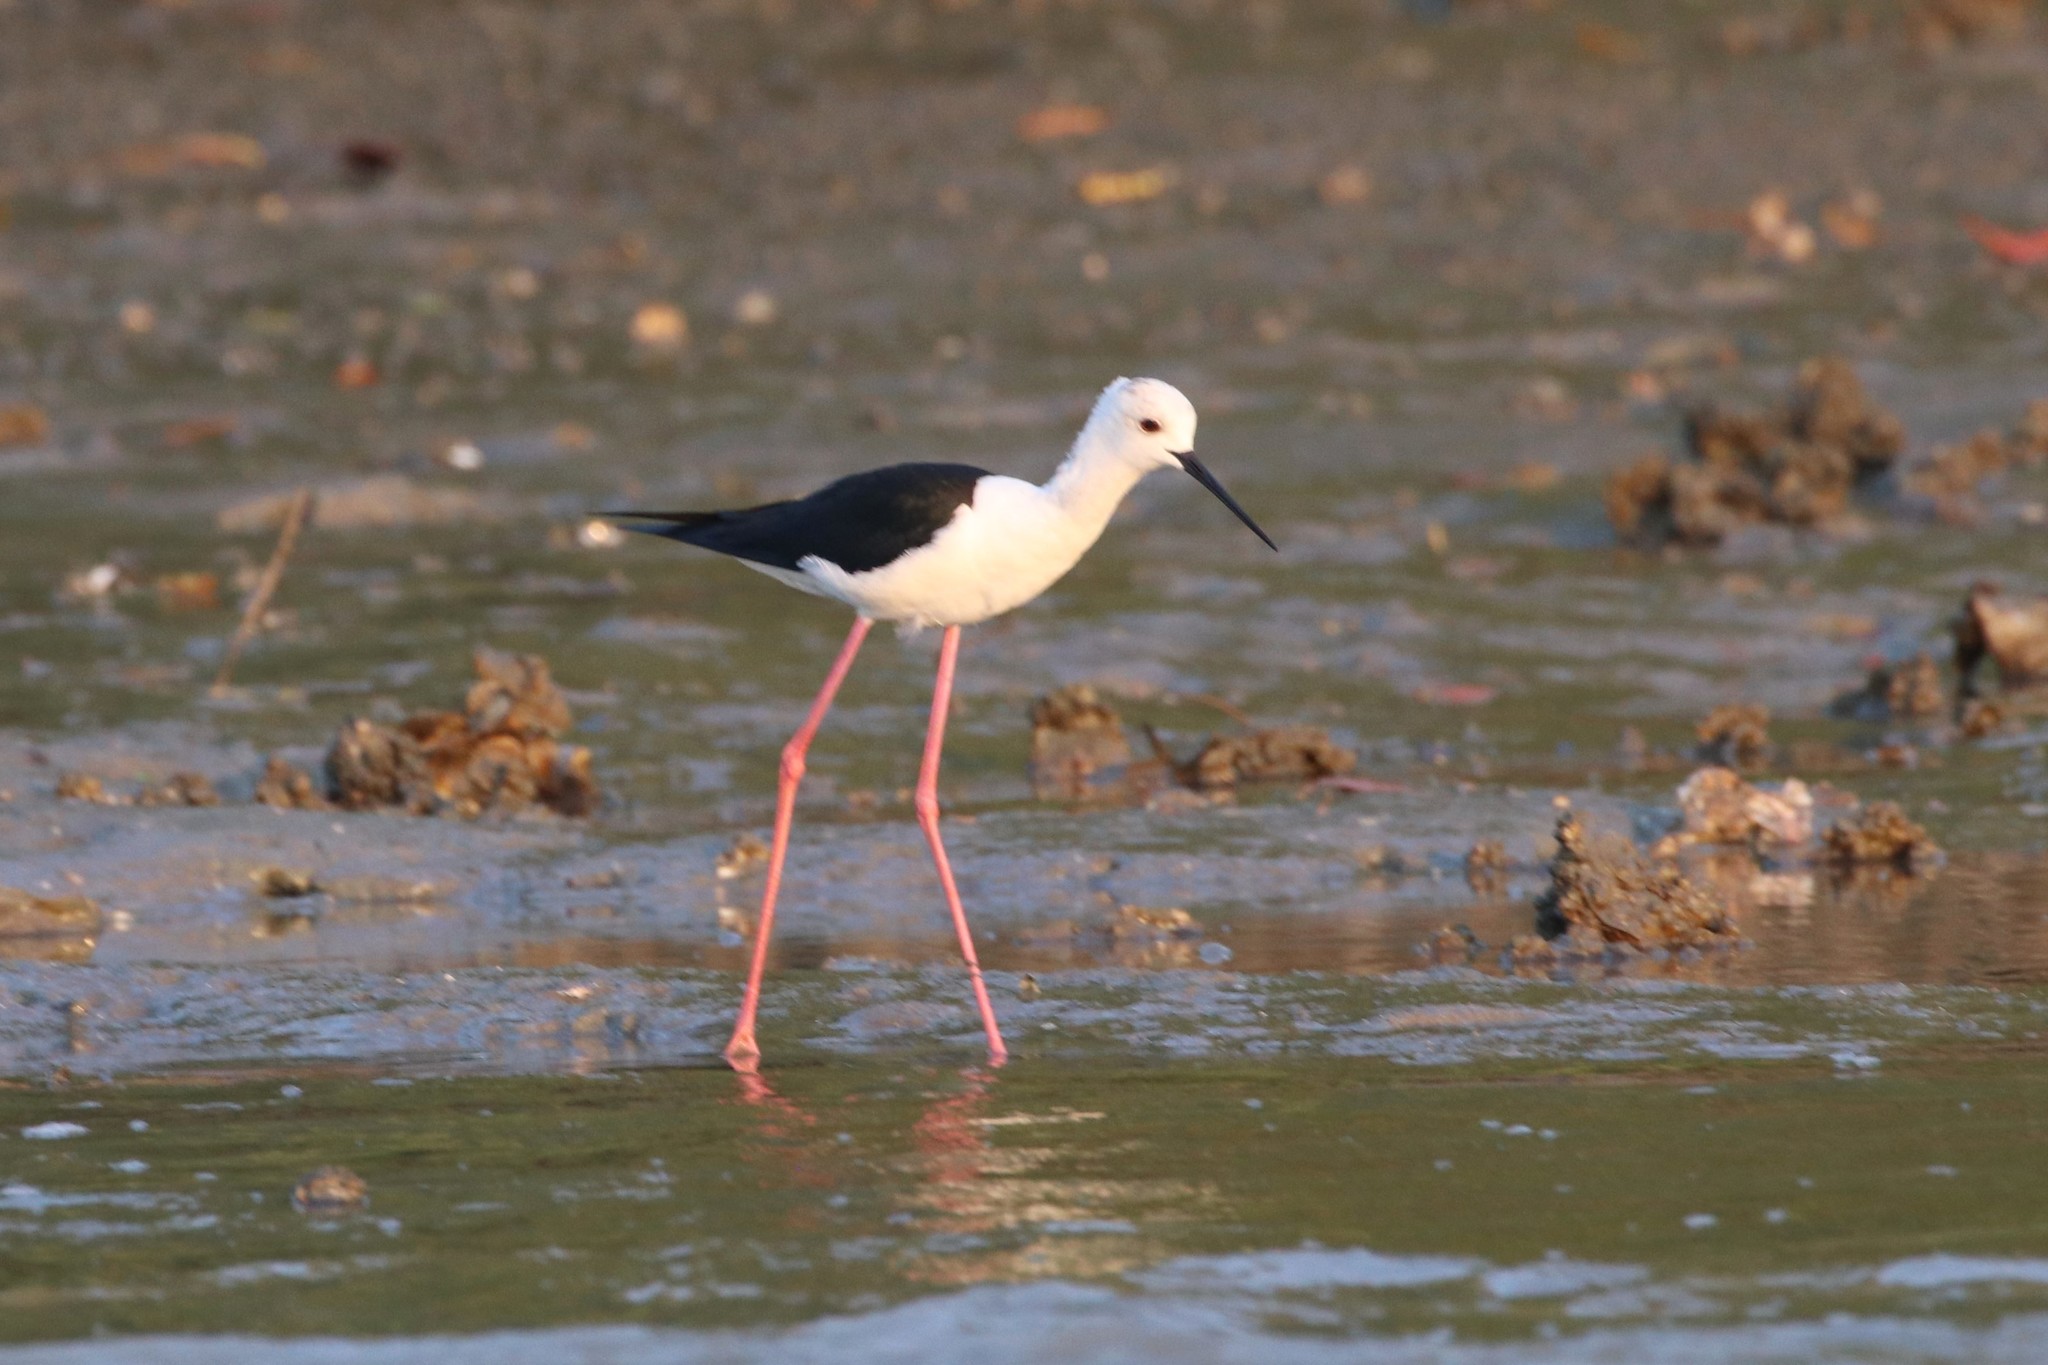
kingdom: Animalia
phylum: Chordata
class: Aves
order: Charadriiformes
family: Recurvirostridae
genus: Himantopus
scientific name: Himantopus himantopus
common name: Black-winged stilt
